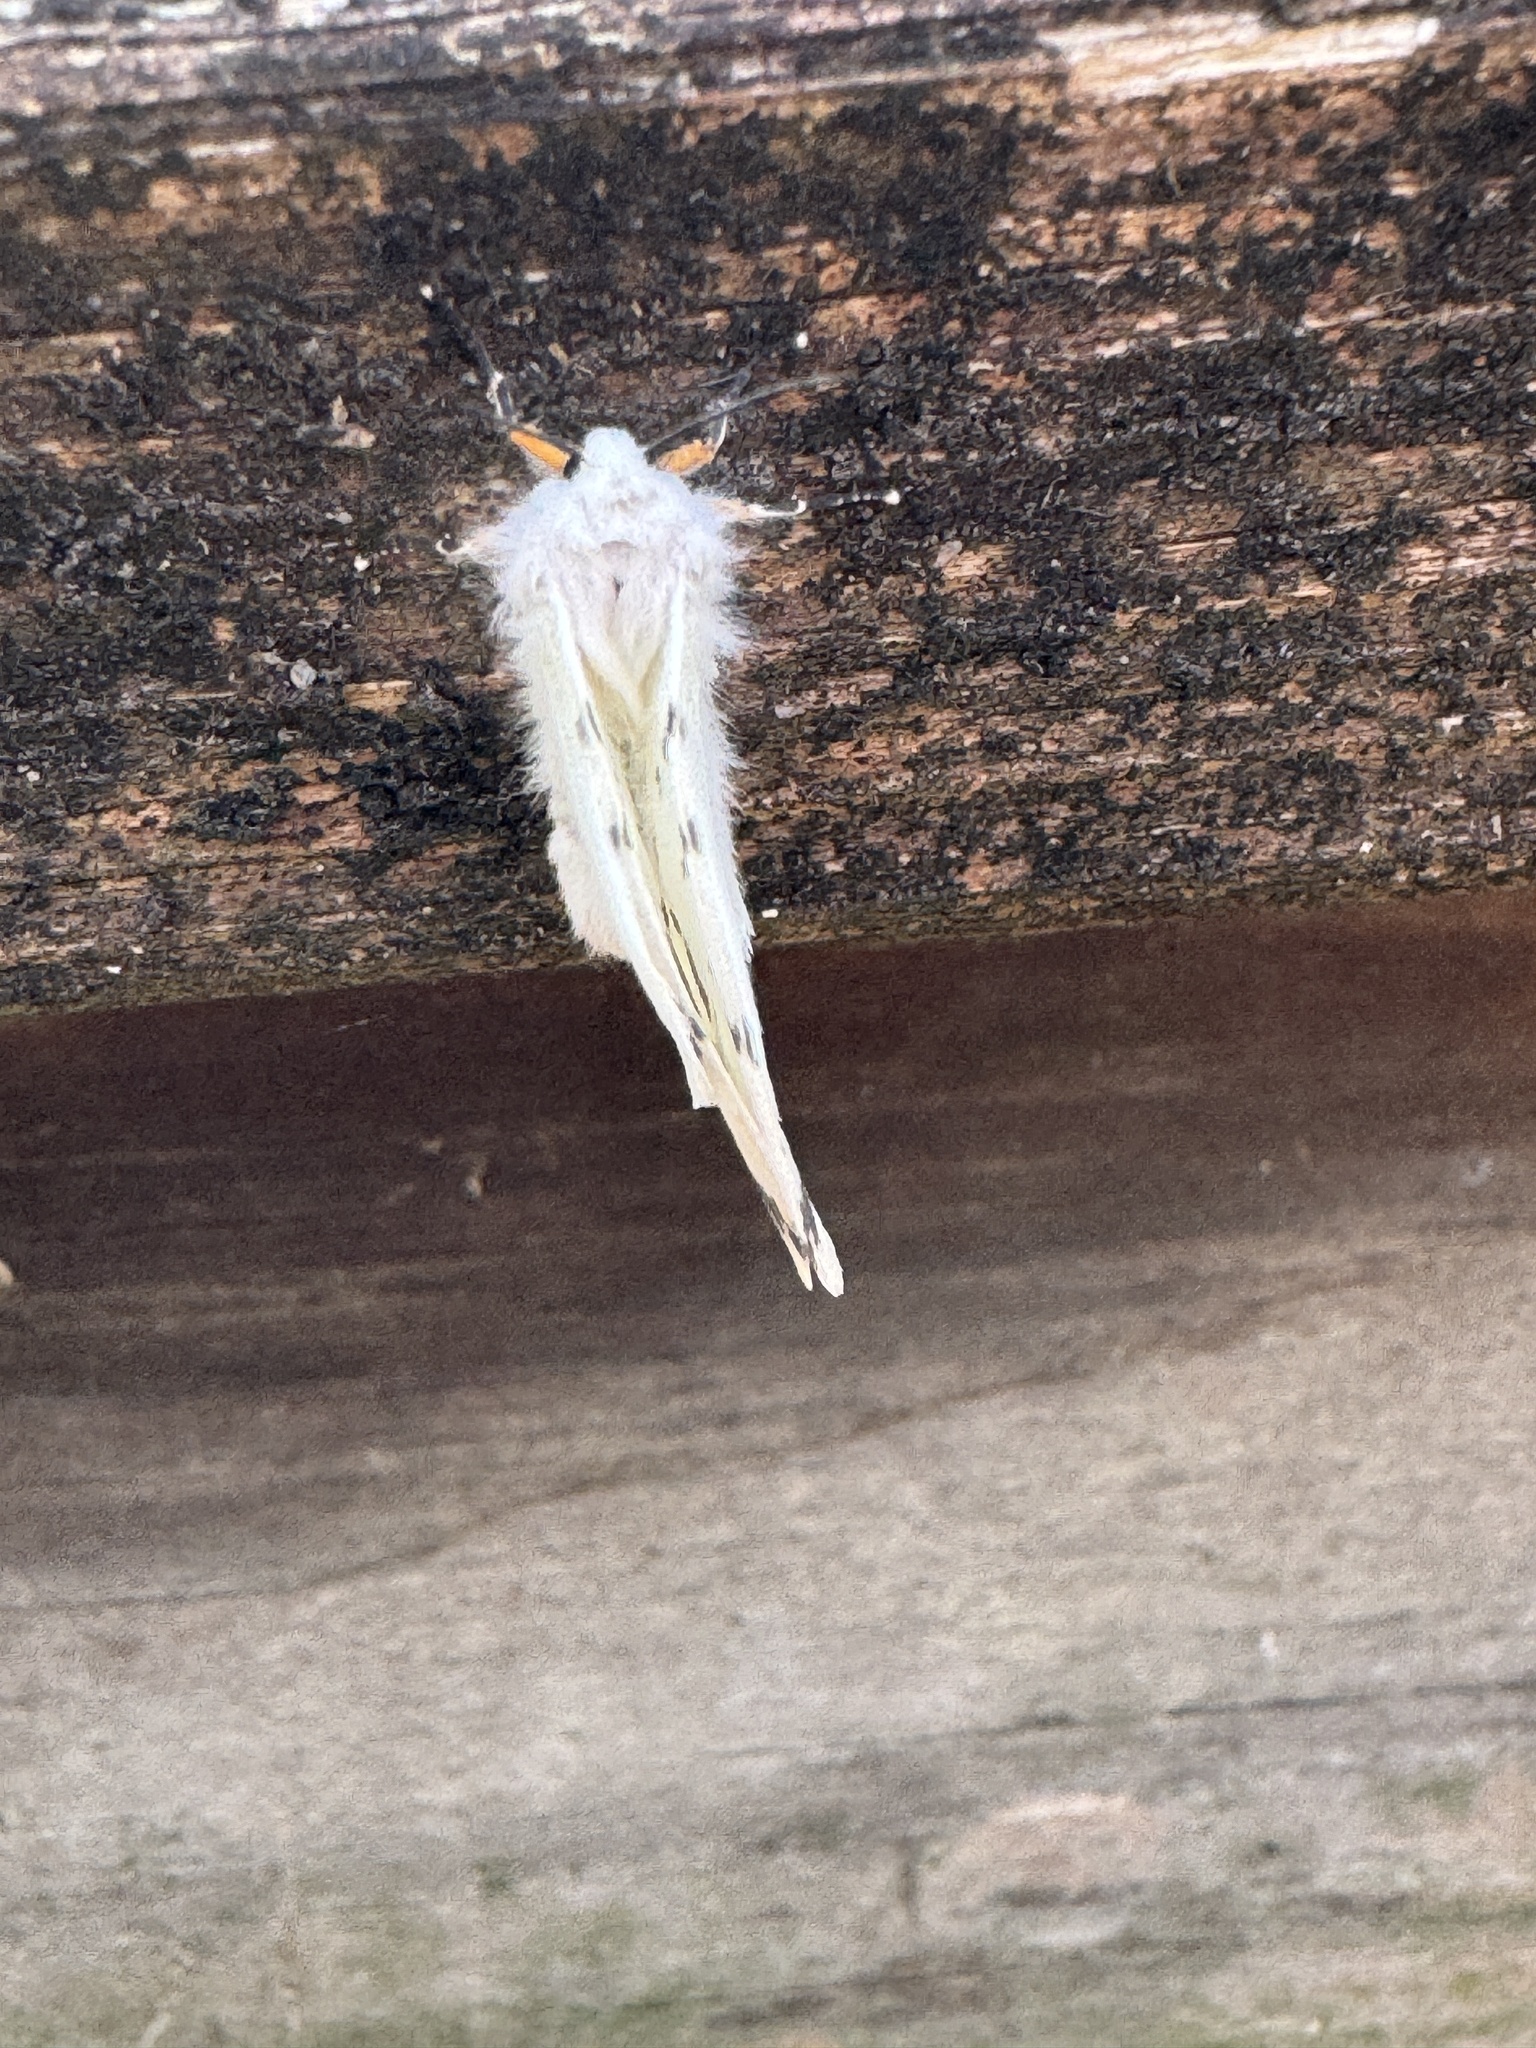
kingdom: Animalia
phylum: Arthropoda
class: Insecta
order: Lepidoptera
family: Erebidae
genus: Hyphantria
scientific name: Hyphantria cunea
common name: American white moth
